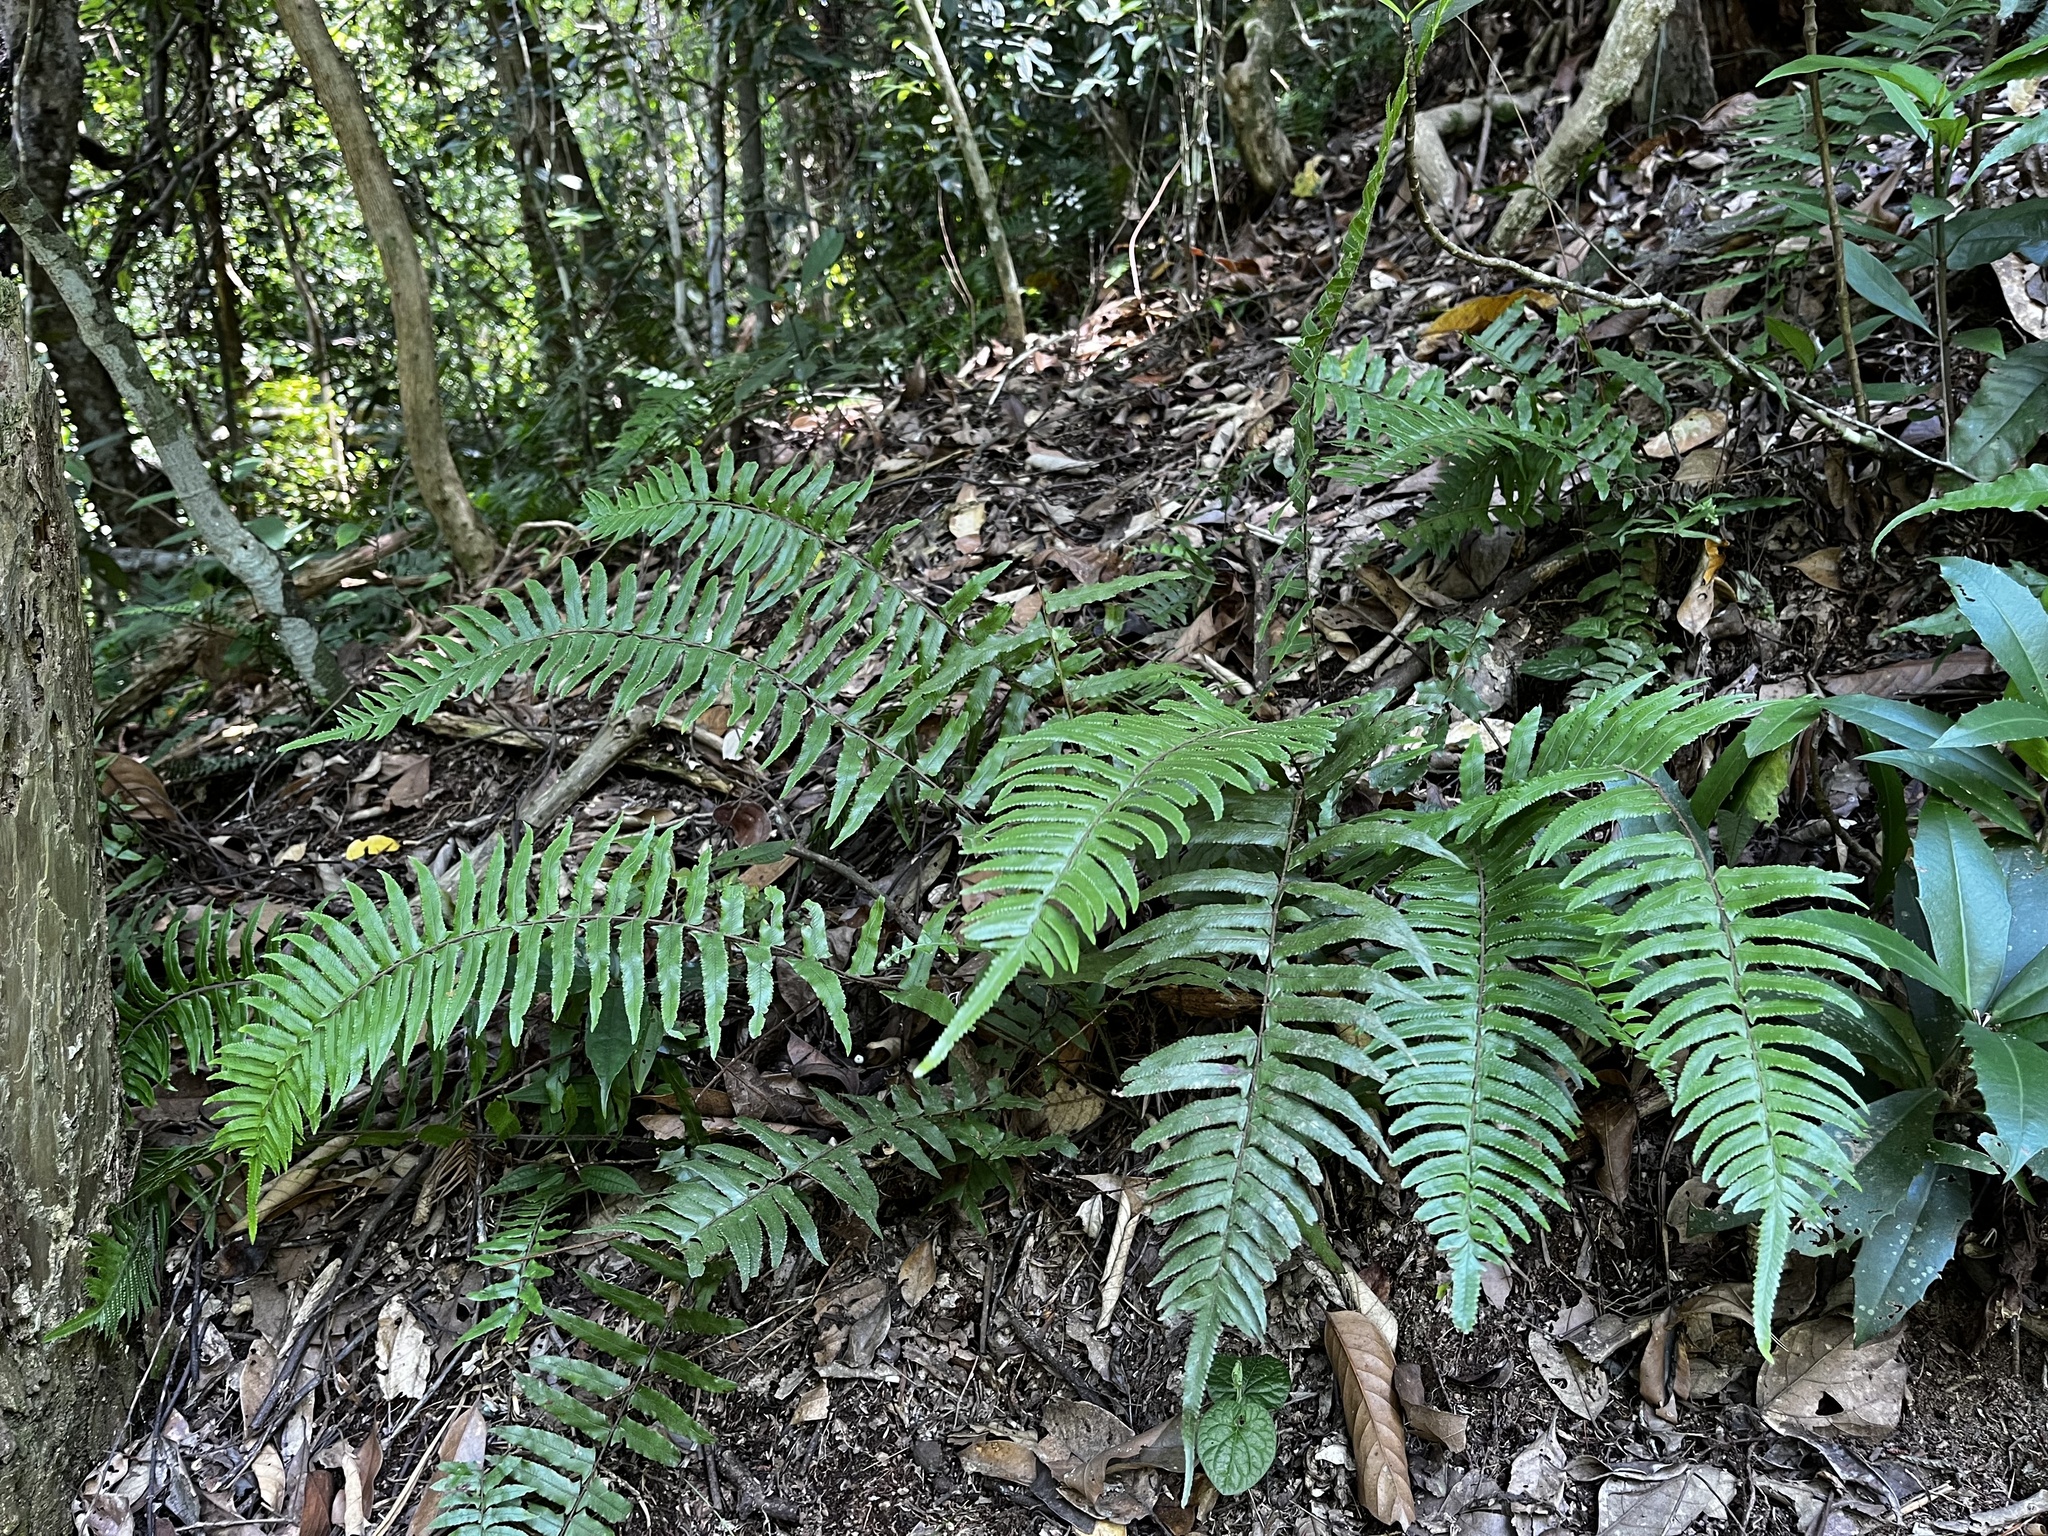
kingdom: Plantae
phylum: Tracheophyta
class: Polypodiopsida
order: Polypodiales
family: Dennstaedtiaceae
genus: Microlepia
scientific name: Microlepia hookeriana
